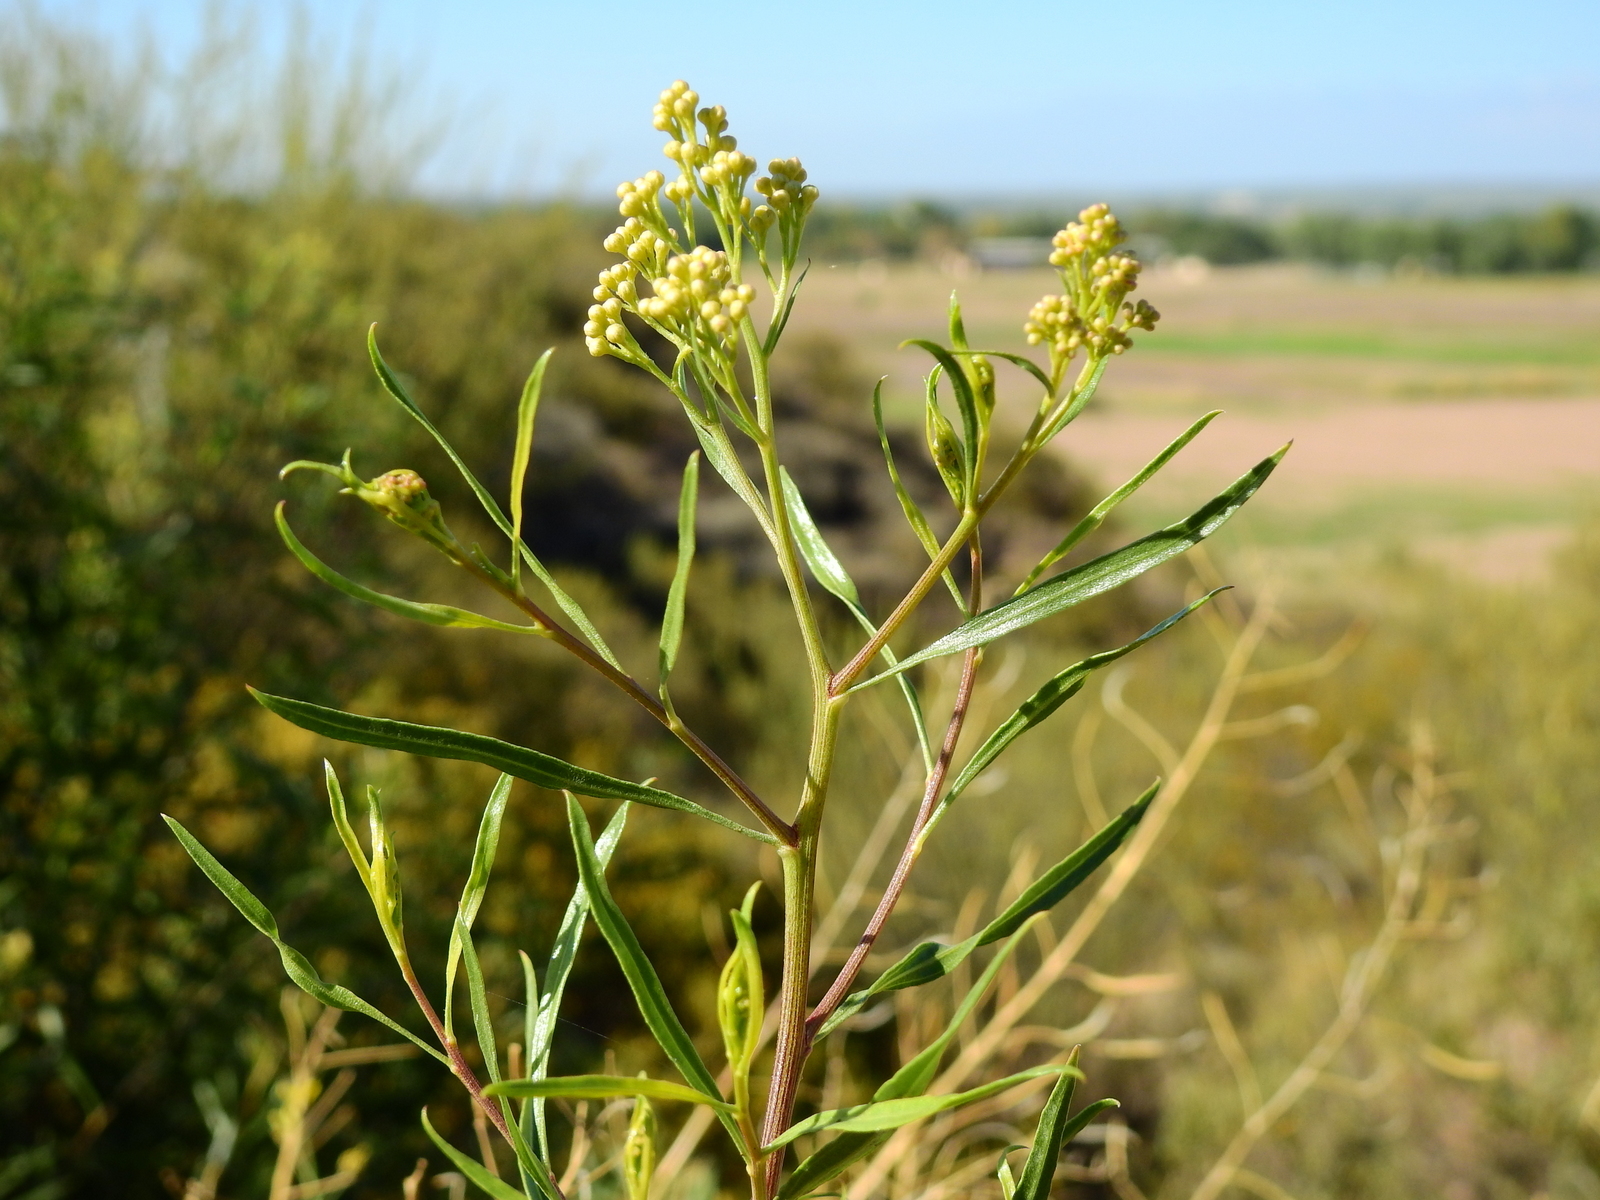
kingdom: Plantae
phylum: Tracheophyta
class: Magnoliopsida
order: Asterales
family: Asteraceae
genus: Baccharis
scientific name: Baccharis salicifolia
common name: Sticky baccharis
